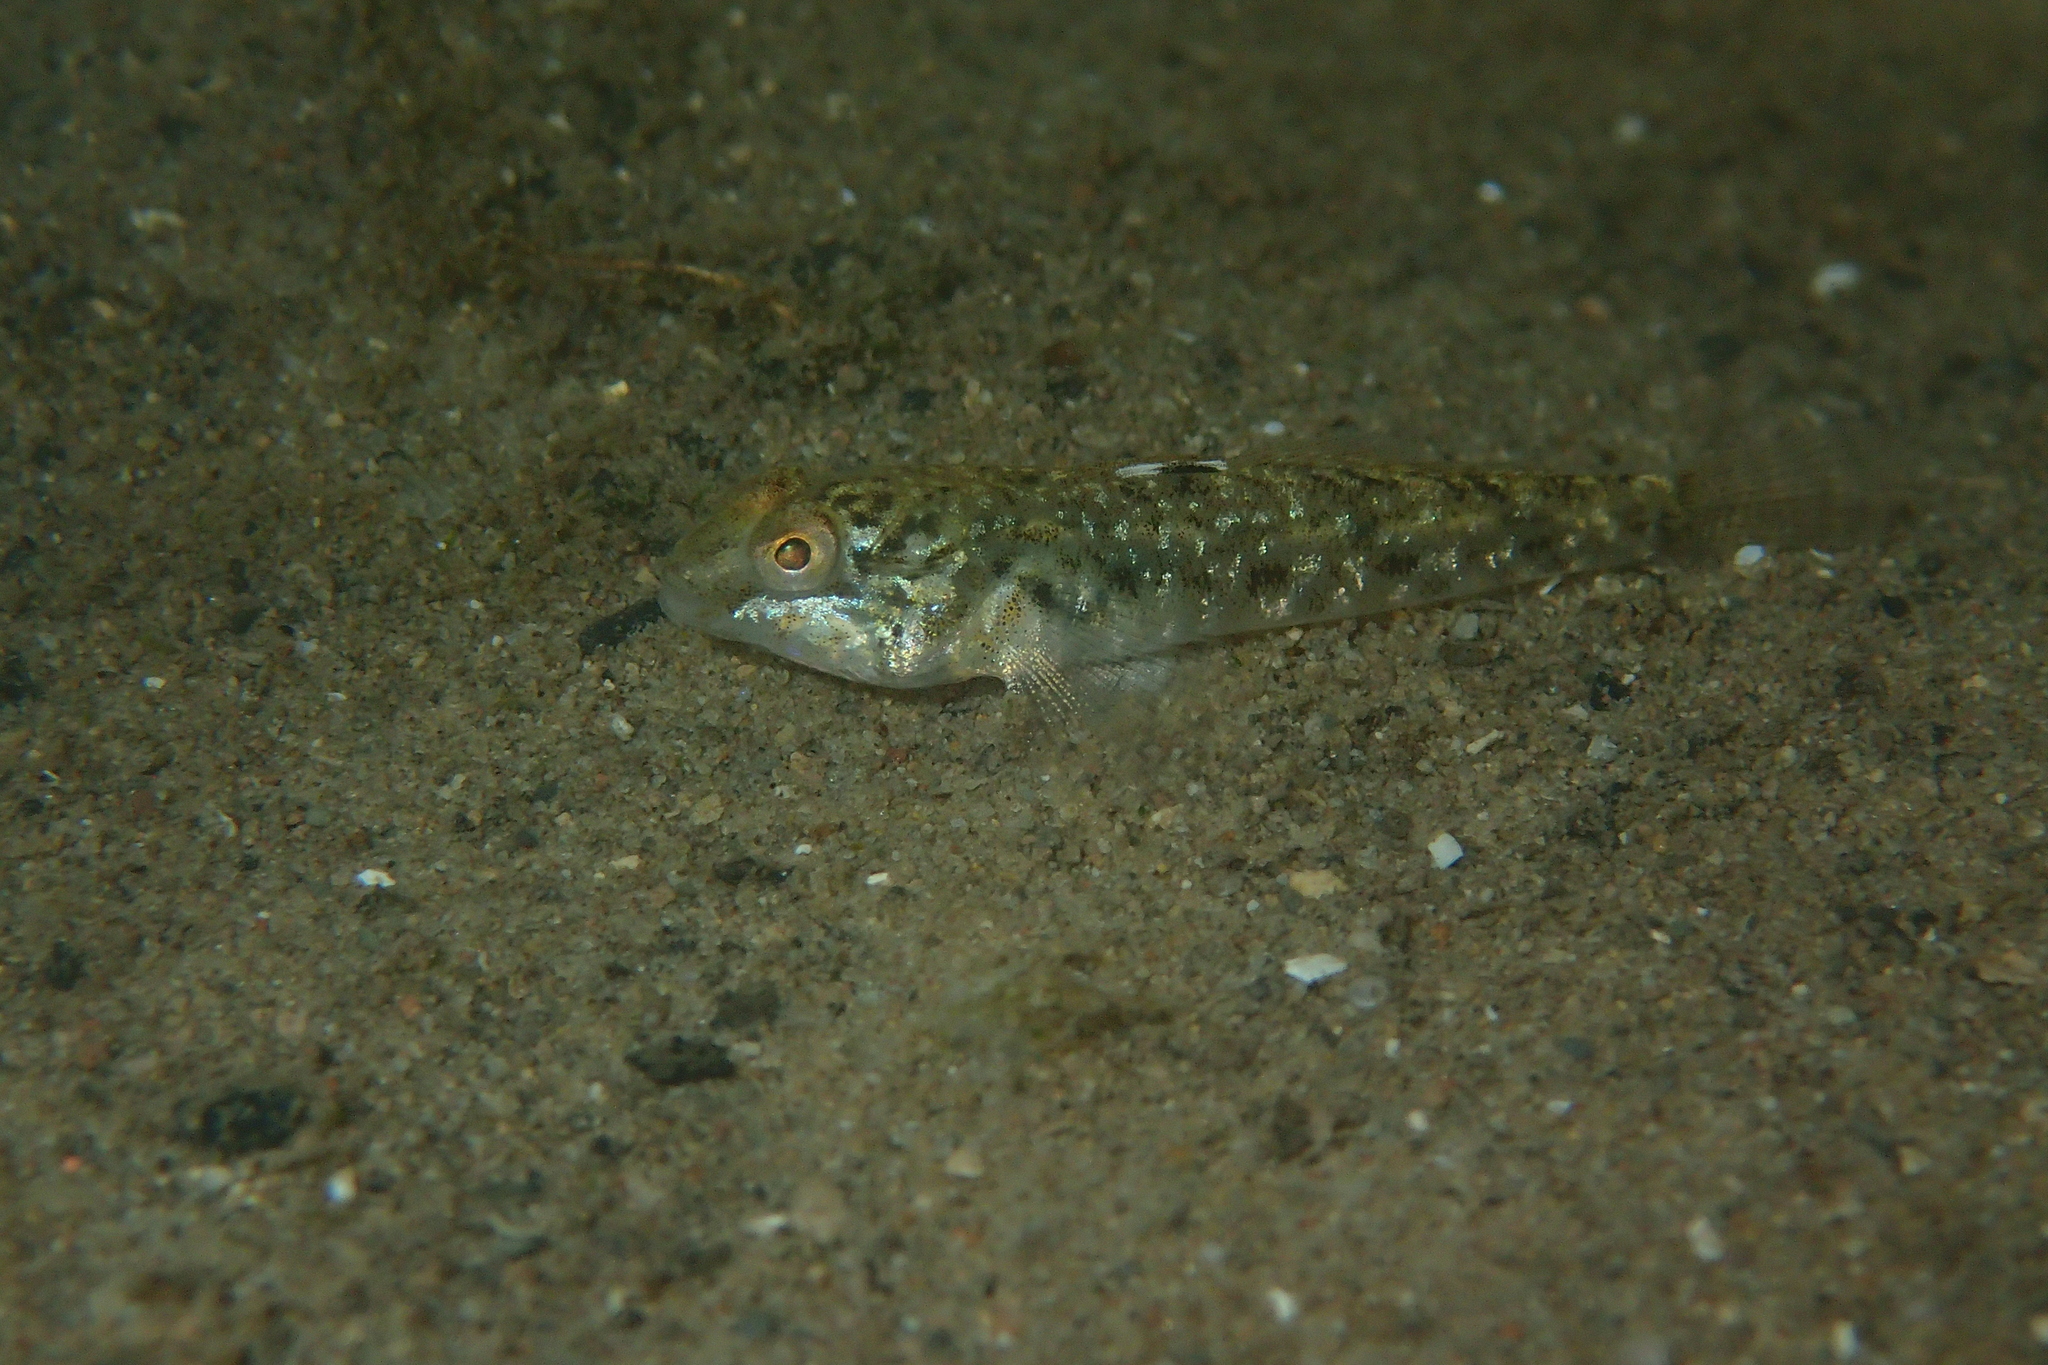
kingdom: Animalia
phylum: Chordata
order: Perciformes
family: Gobiidae
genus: Neogobius
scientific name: Neogobius melanostomus
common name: Round goby
